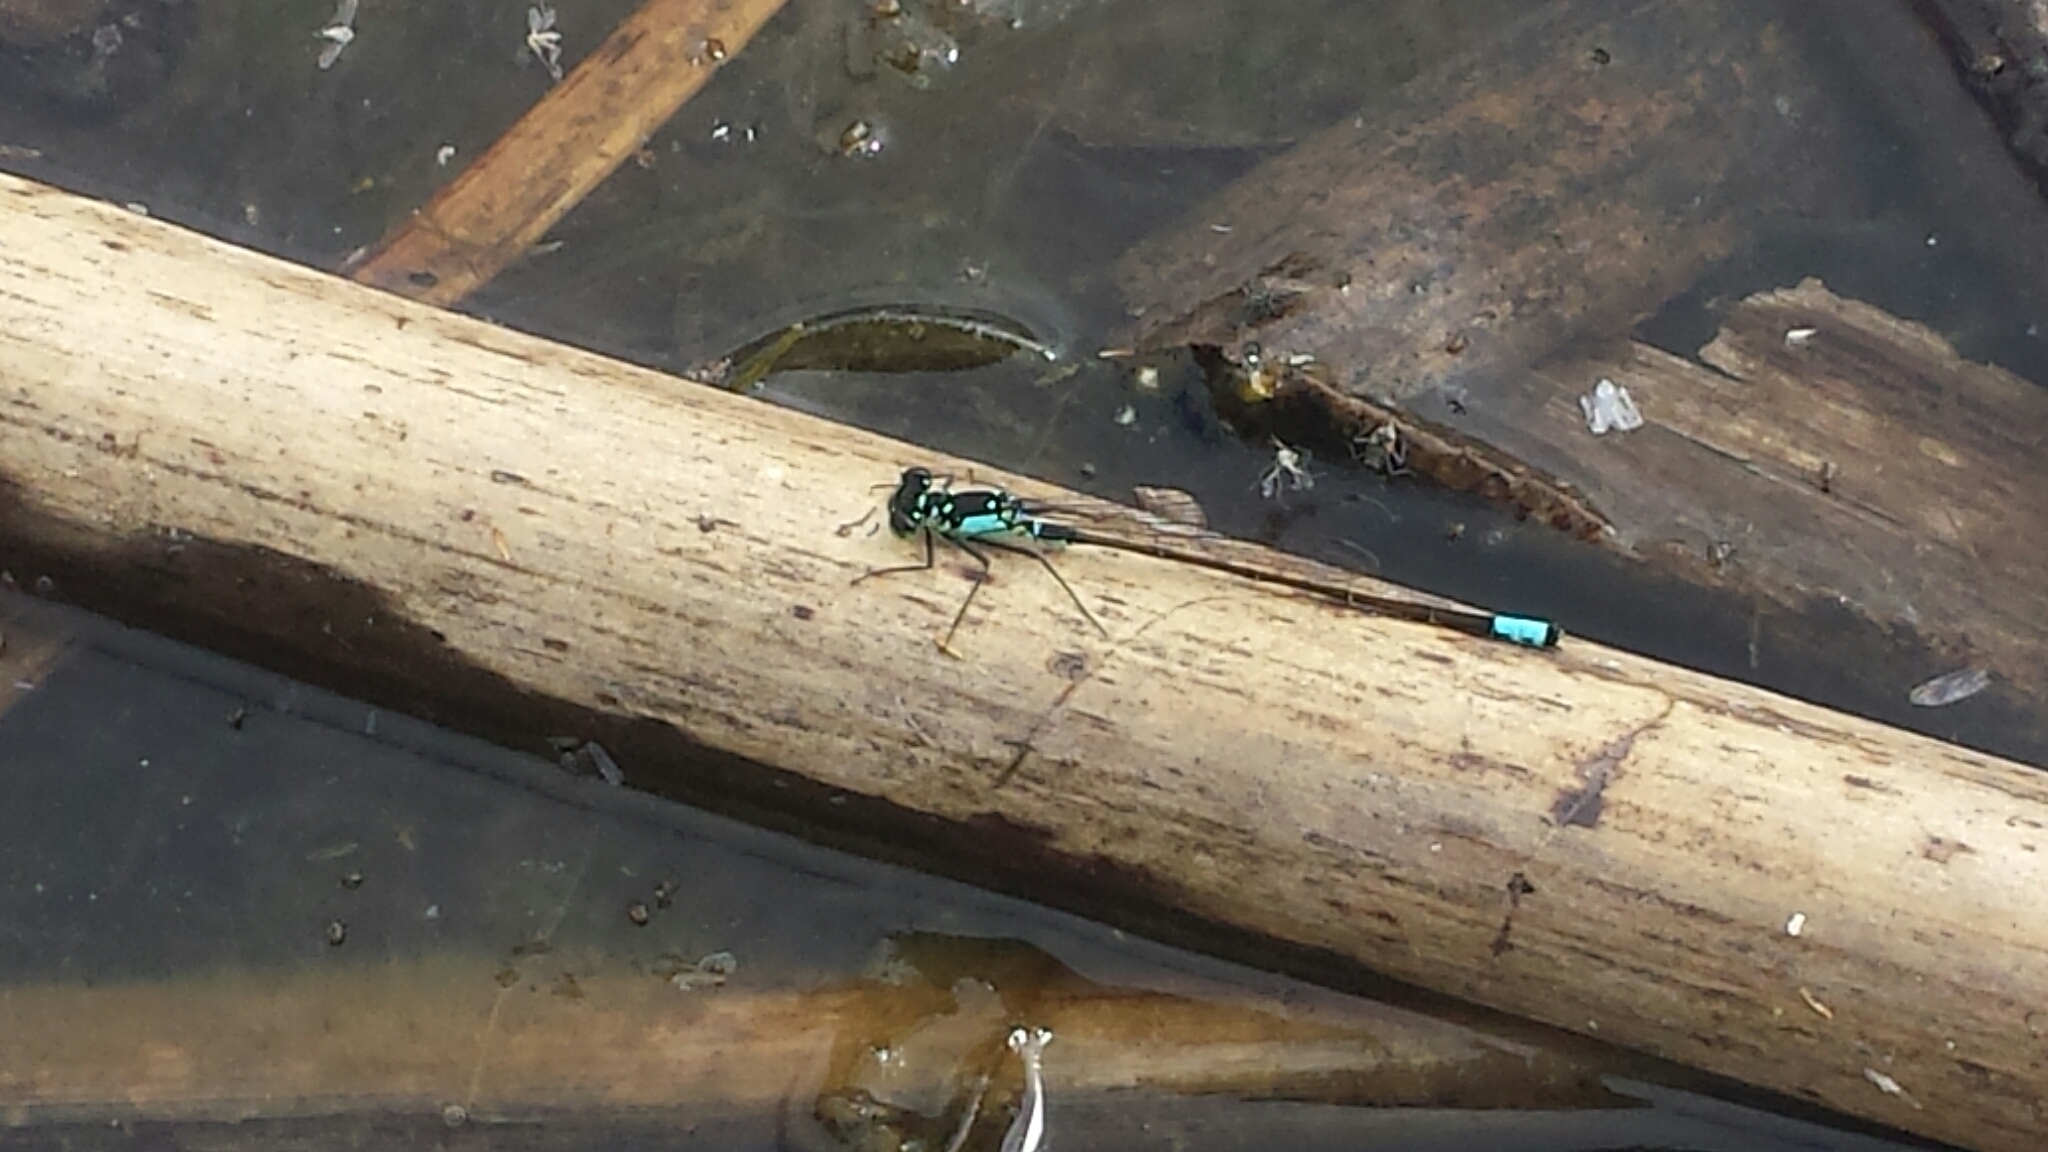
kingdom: Animalia
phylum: Arthropoda
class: Insecta
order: Odonata
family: Coenagrionidae
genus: Ischnura
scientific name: Ischnura cervula
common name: Pacific forktail
